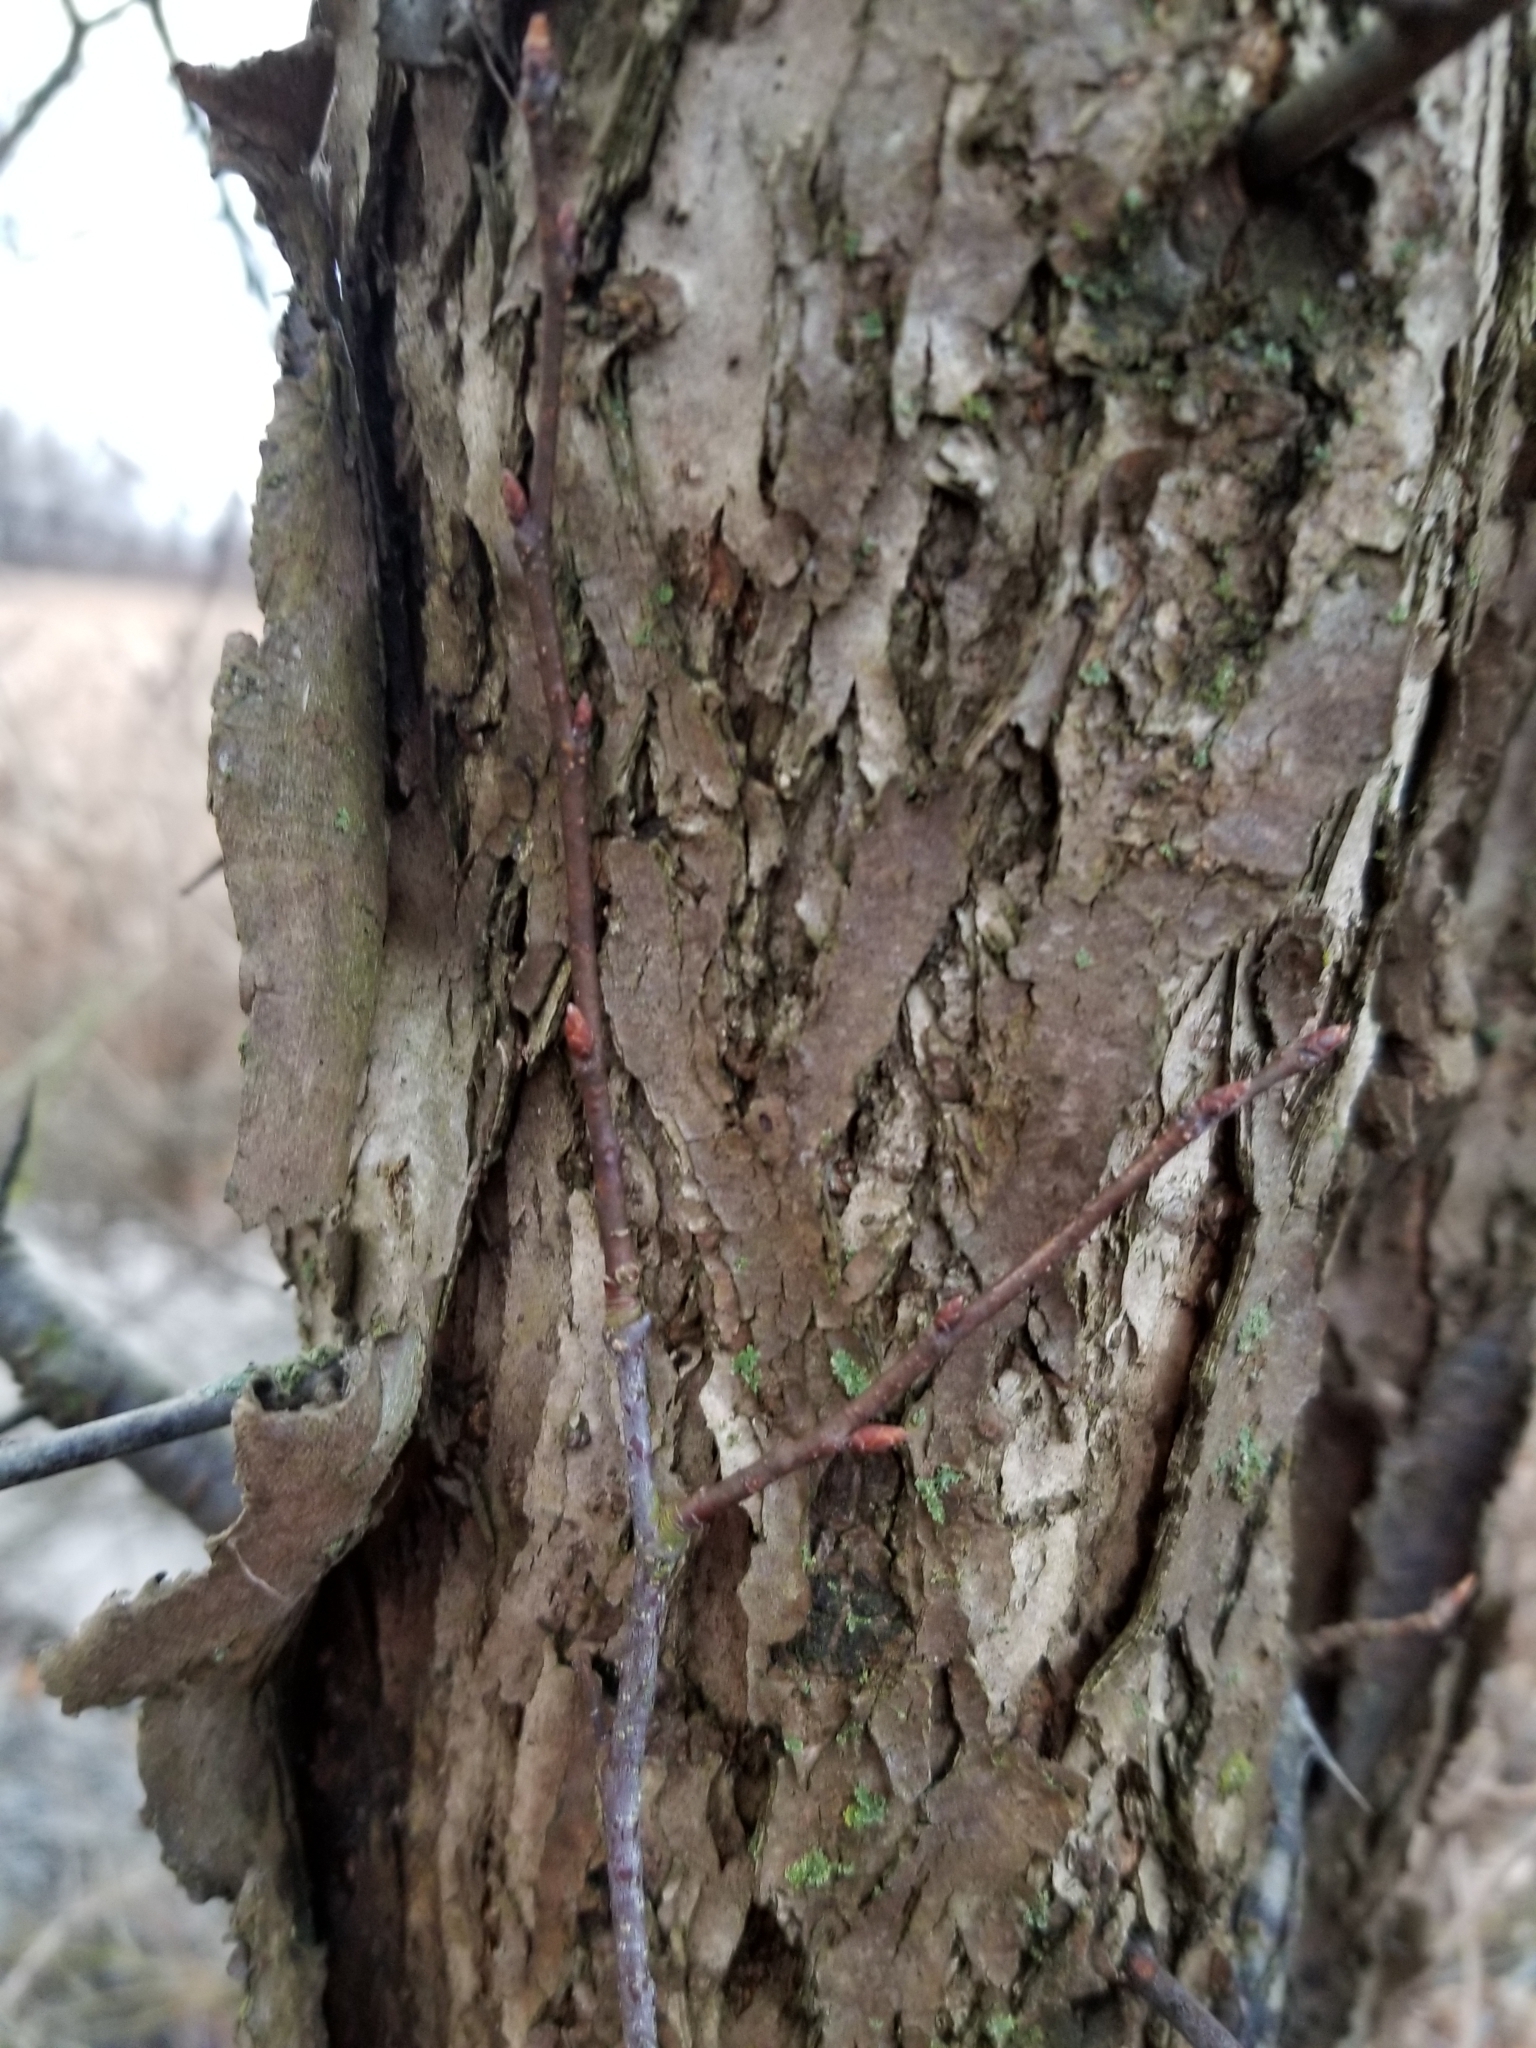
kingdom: Plantae
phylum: Tracheophyta
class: Magnoliopsida
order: Rosales
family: Rosaceae
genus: Prunus
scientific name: Prunus americana
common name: American plum
